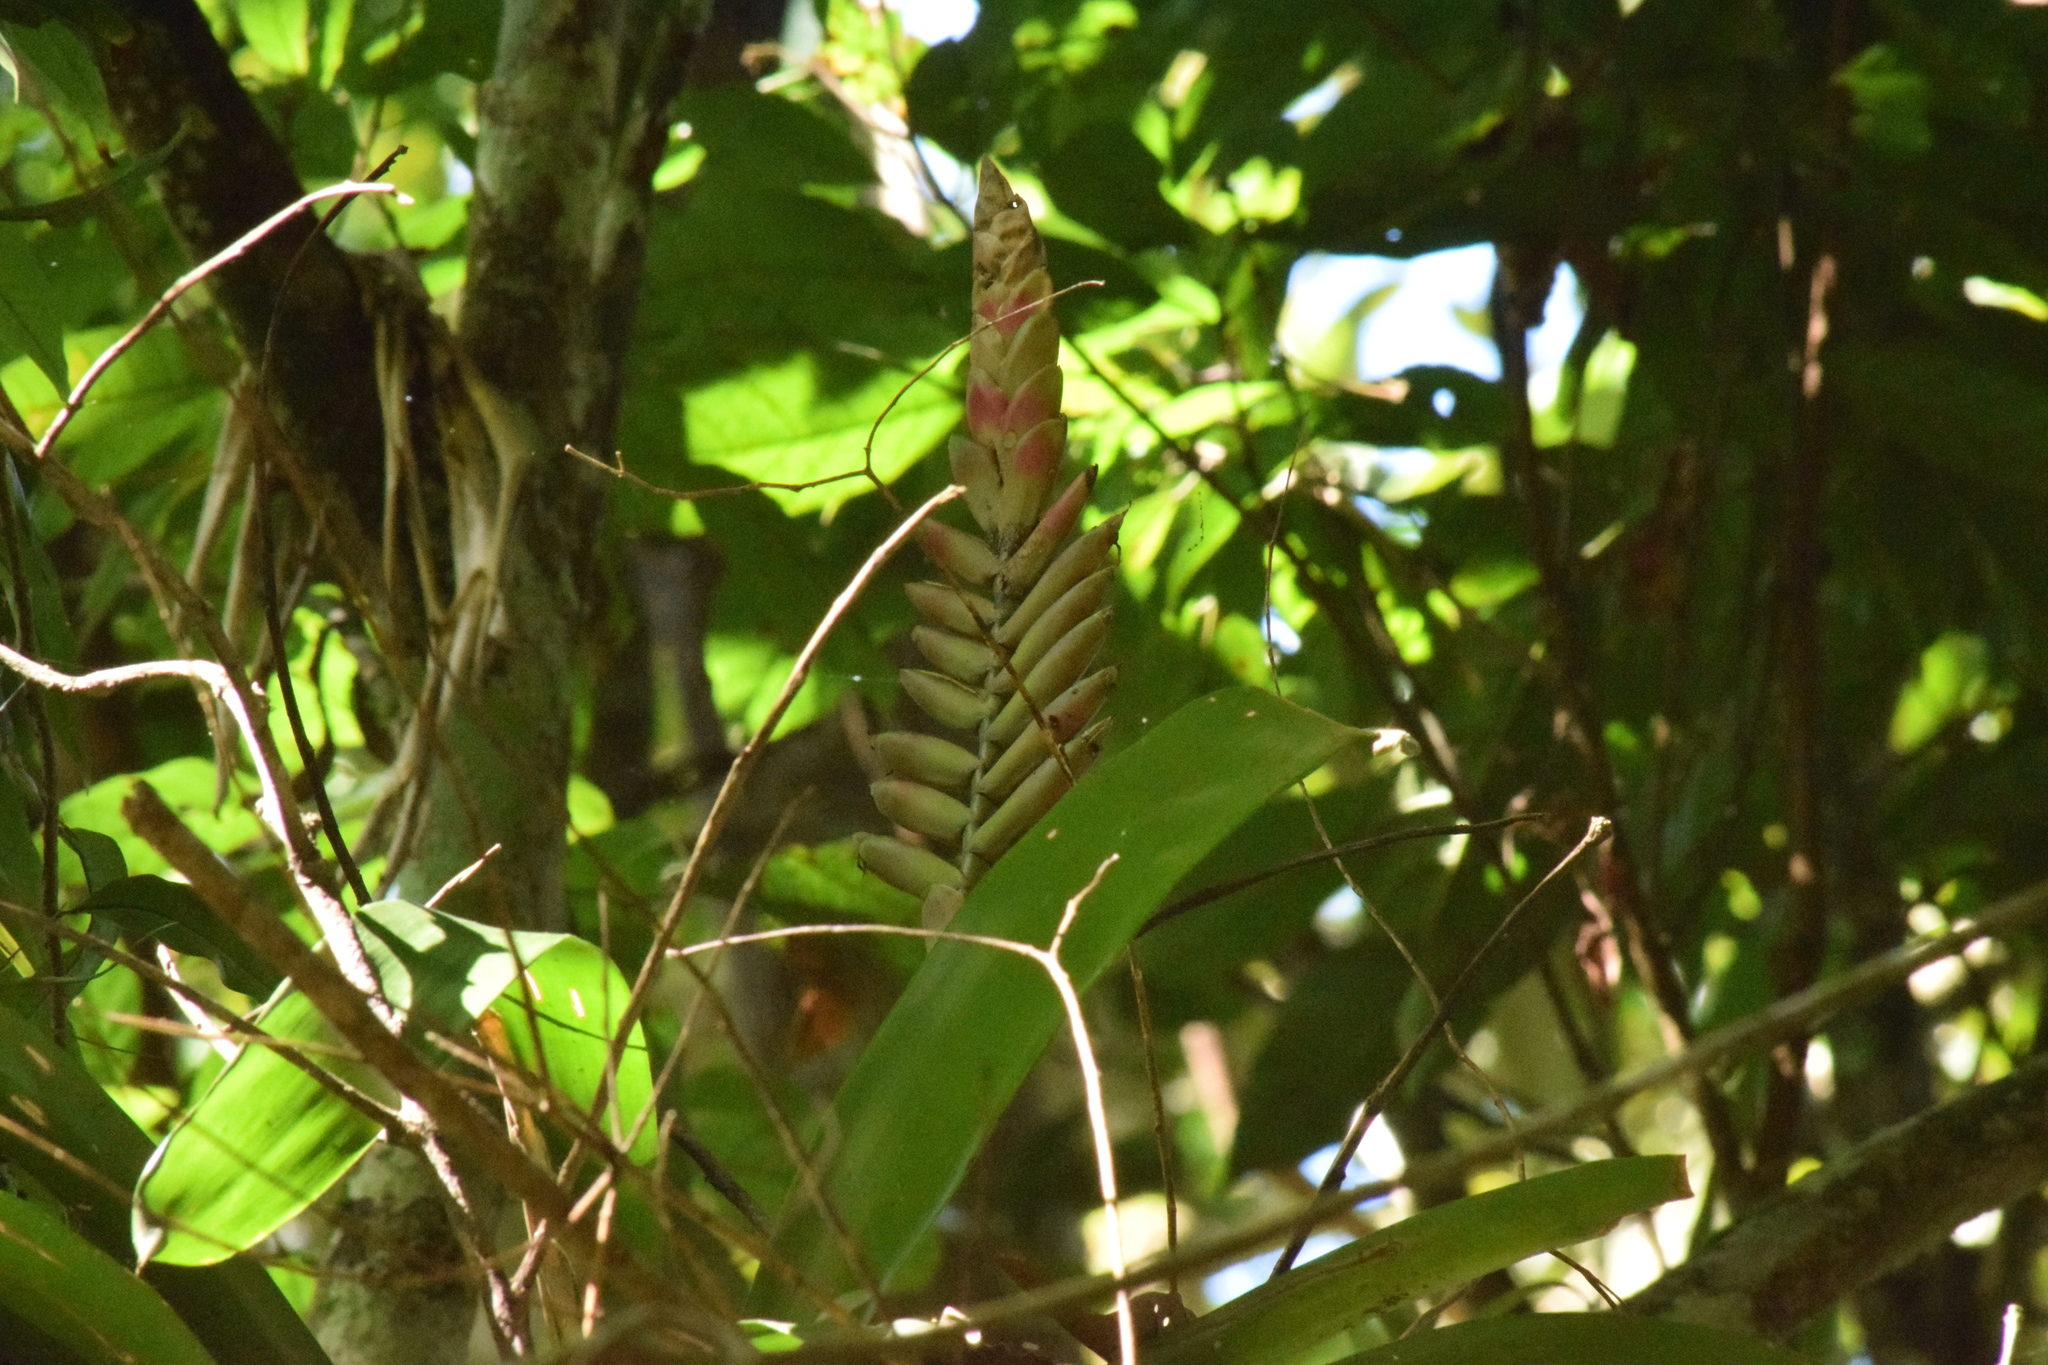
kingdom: Plantae
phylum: Tracheophyta
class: Liliopsida
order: Poales
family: Bromeliaceae
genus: Vriesea
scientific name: Vriesea ensiformis
